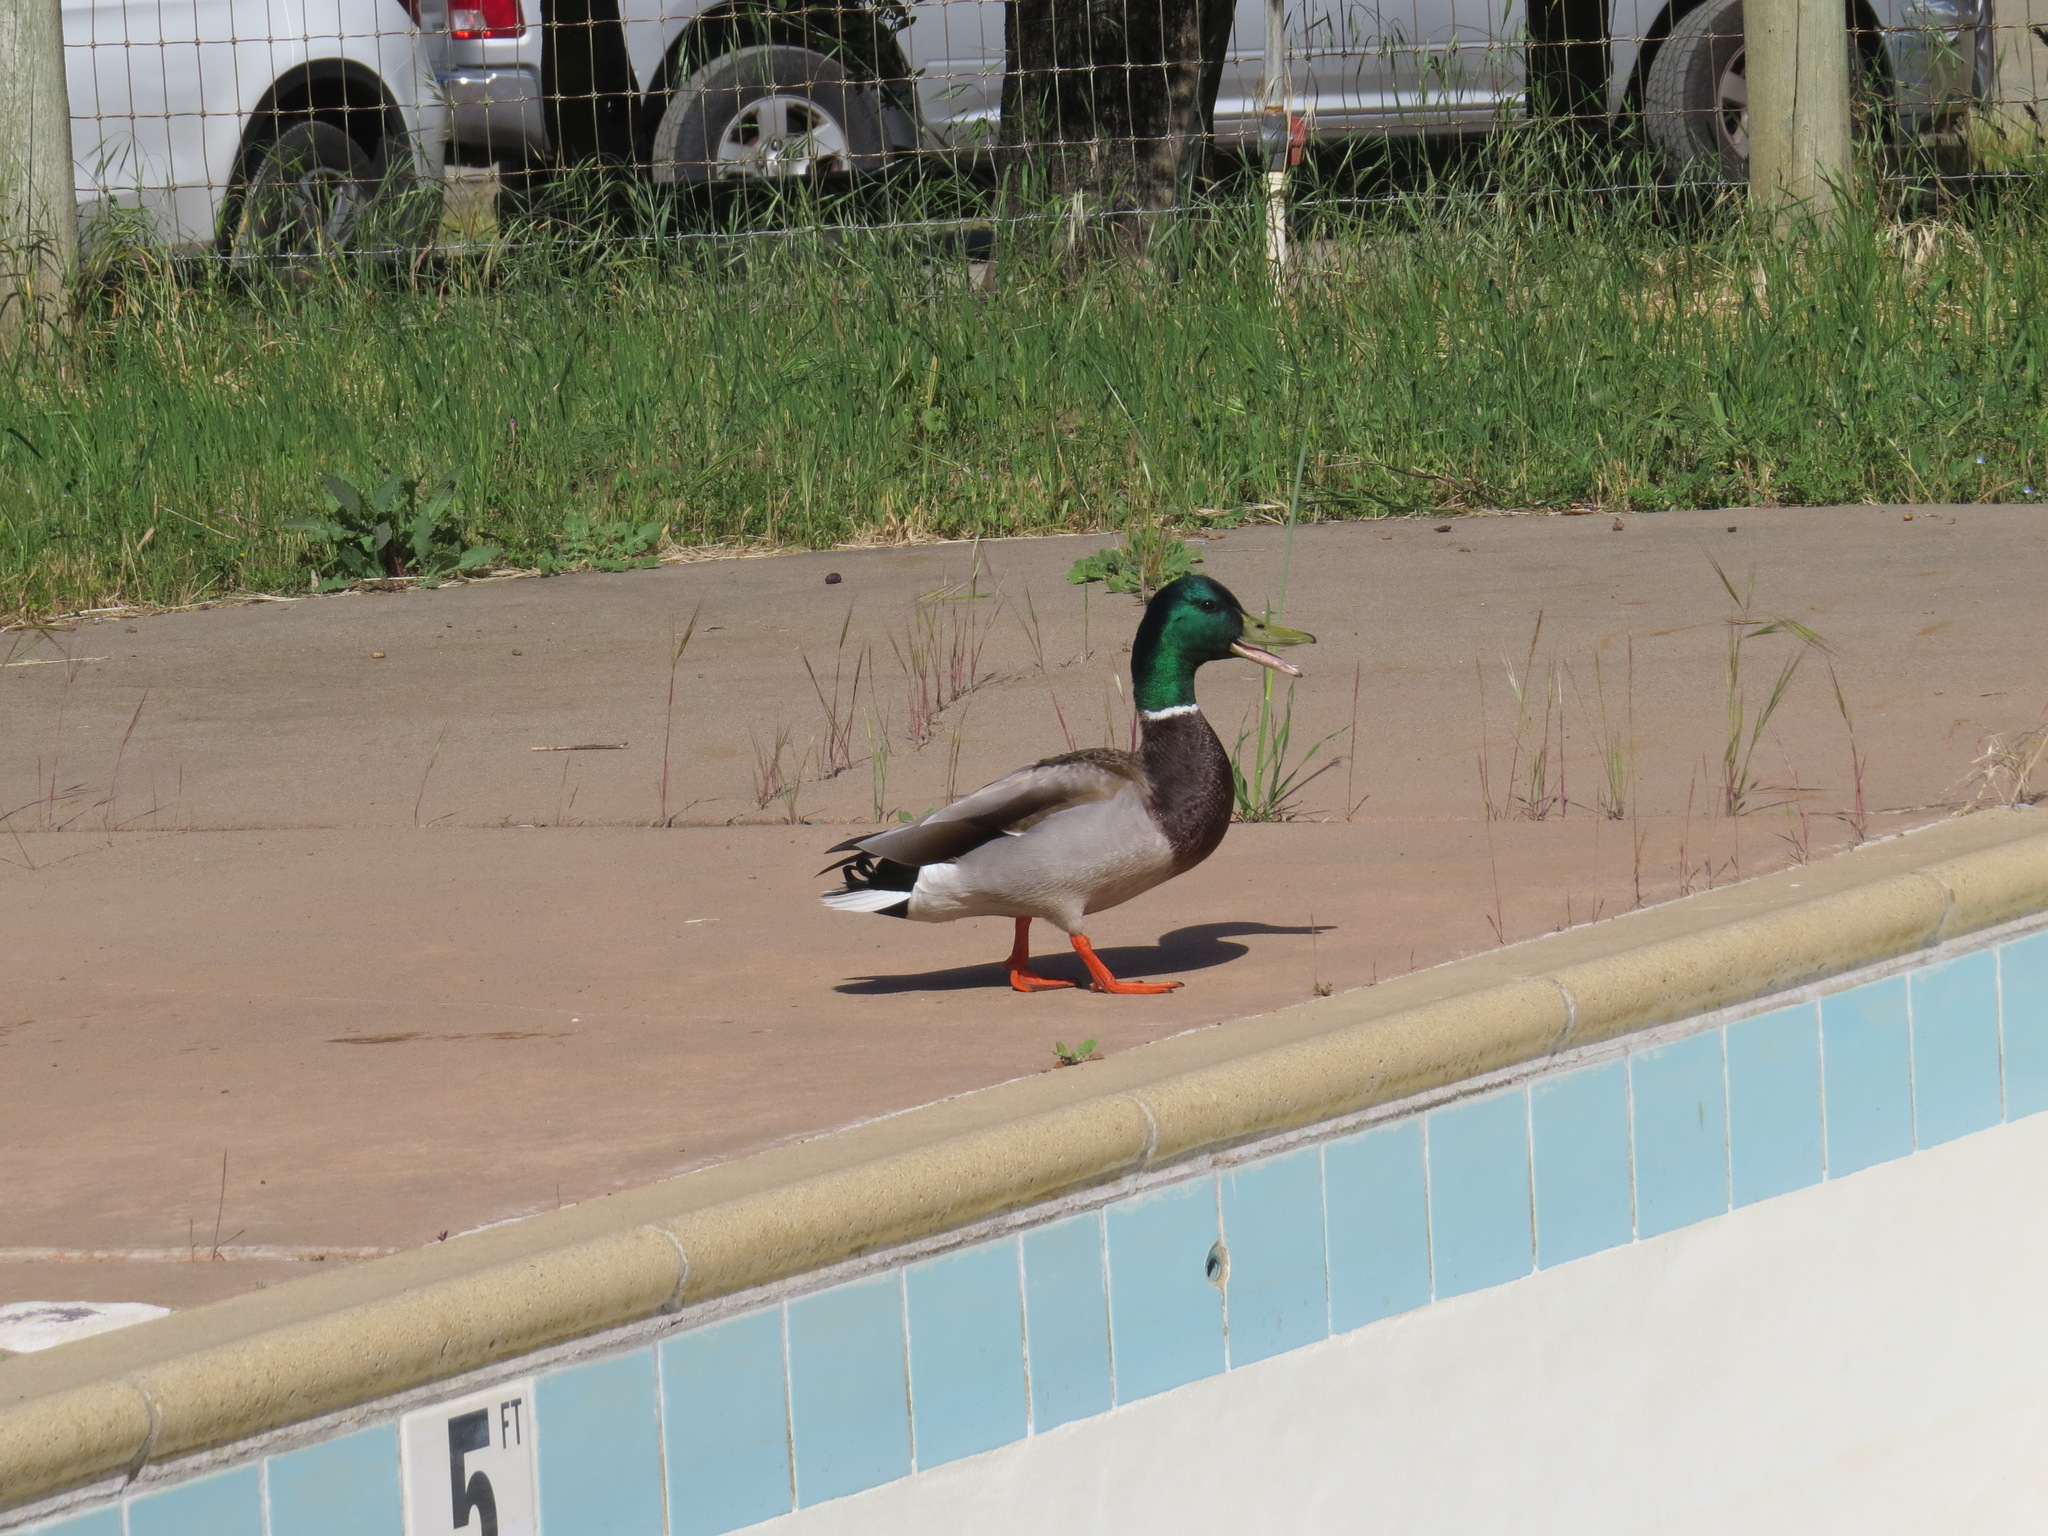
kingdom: Animalia
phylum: Chordata
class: Aves
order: Anseriformes
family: Anatidae
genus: Anas
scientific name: Anas platyrhynchos
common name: Mallard
